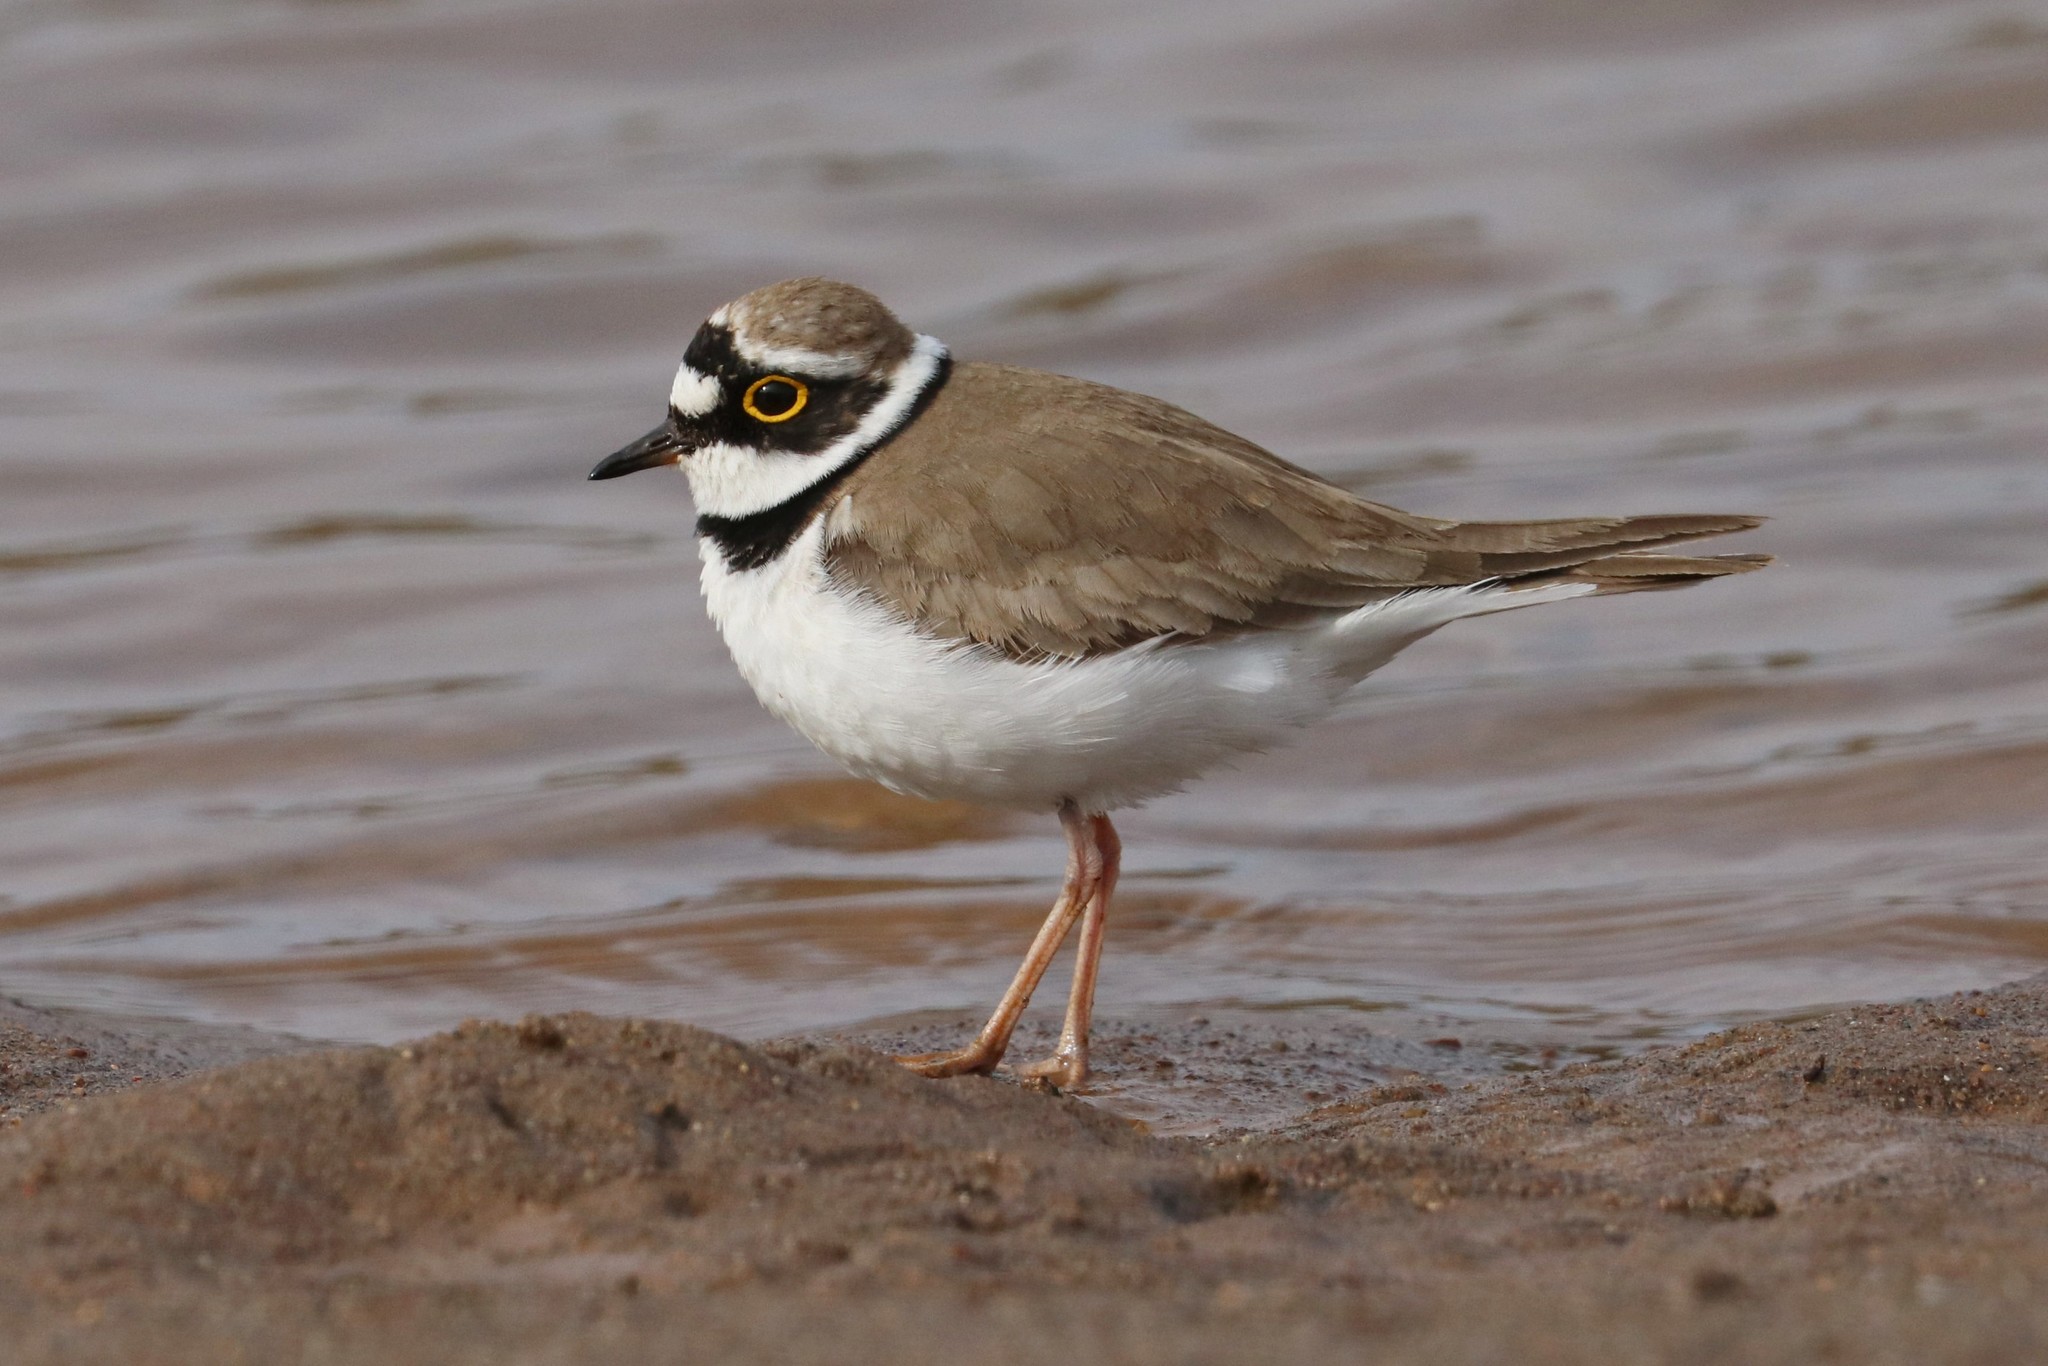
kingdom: Animalia
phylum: Chordata
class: Aves
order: Charadriiformes
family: Charadriidae
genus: Charadrius
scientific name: Charadrius dubius
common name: Little ringed plover
